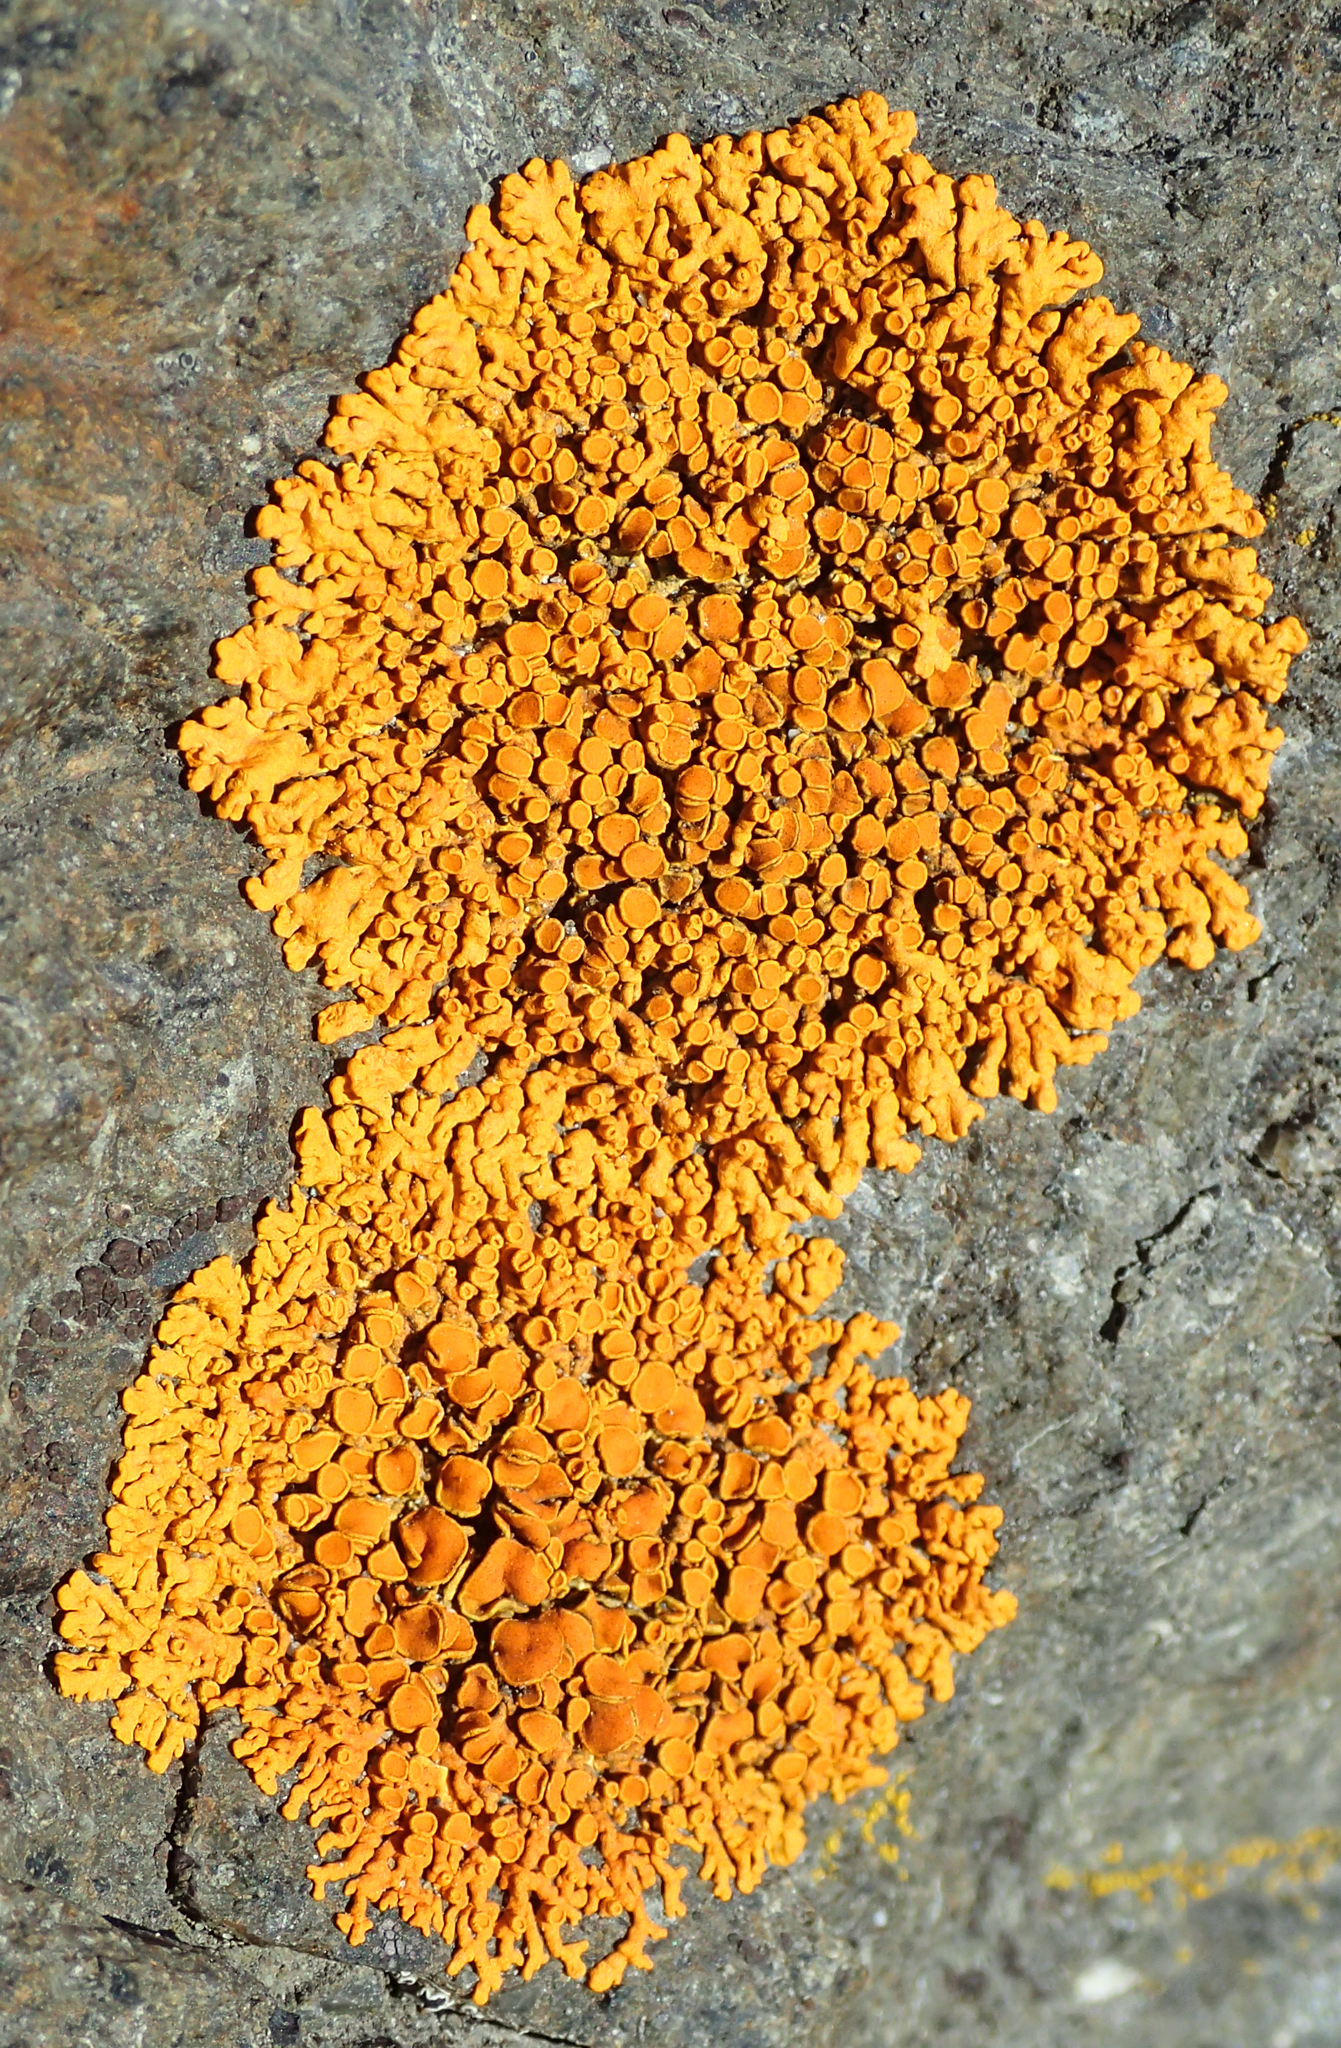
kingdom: Fungi
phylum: Ascomycota
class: Lecanoromycetes
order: Teloschistales
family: Teloschistaceae
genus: Xanthoria
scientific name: Xanthoria elegans
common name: Elegant sunburst lichen
